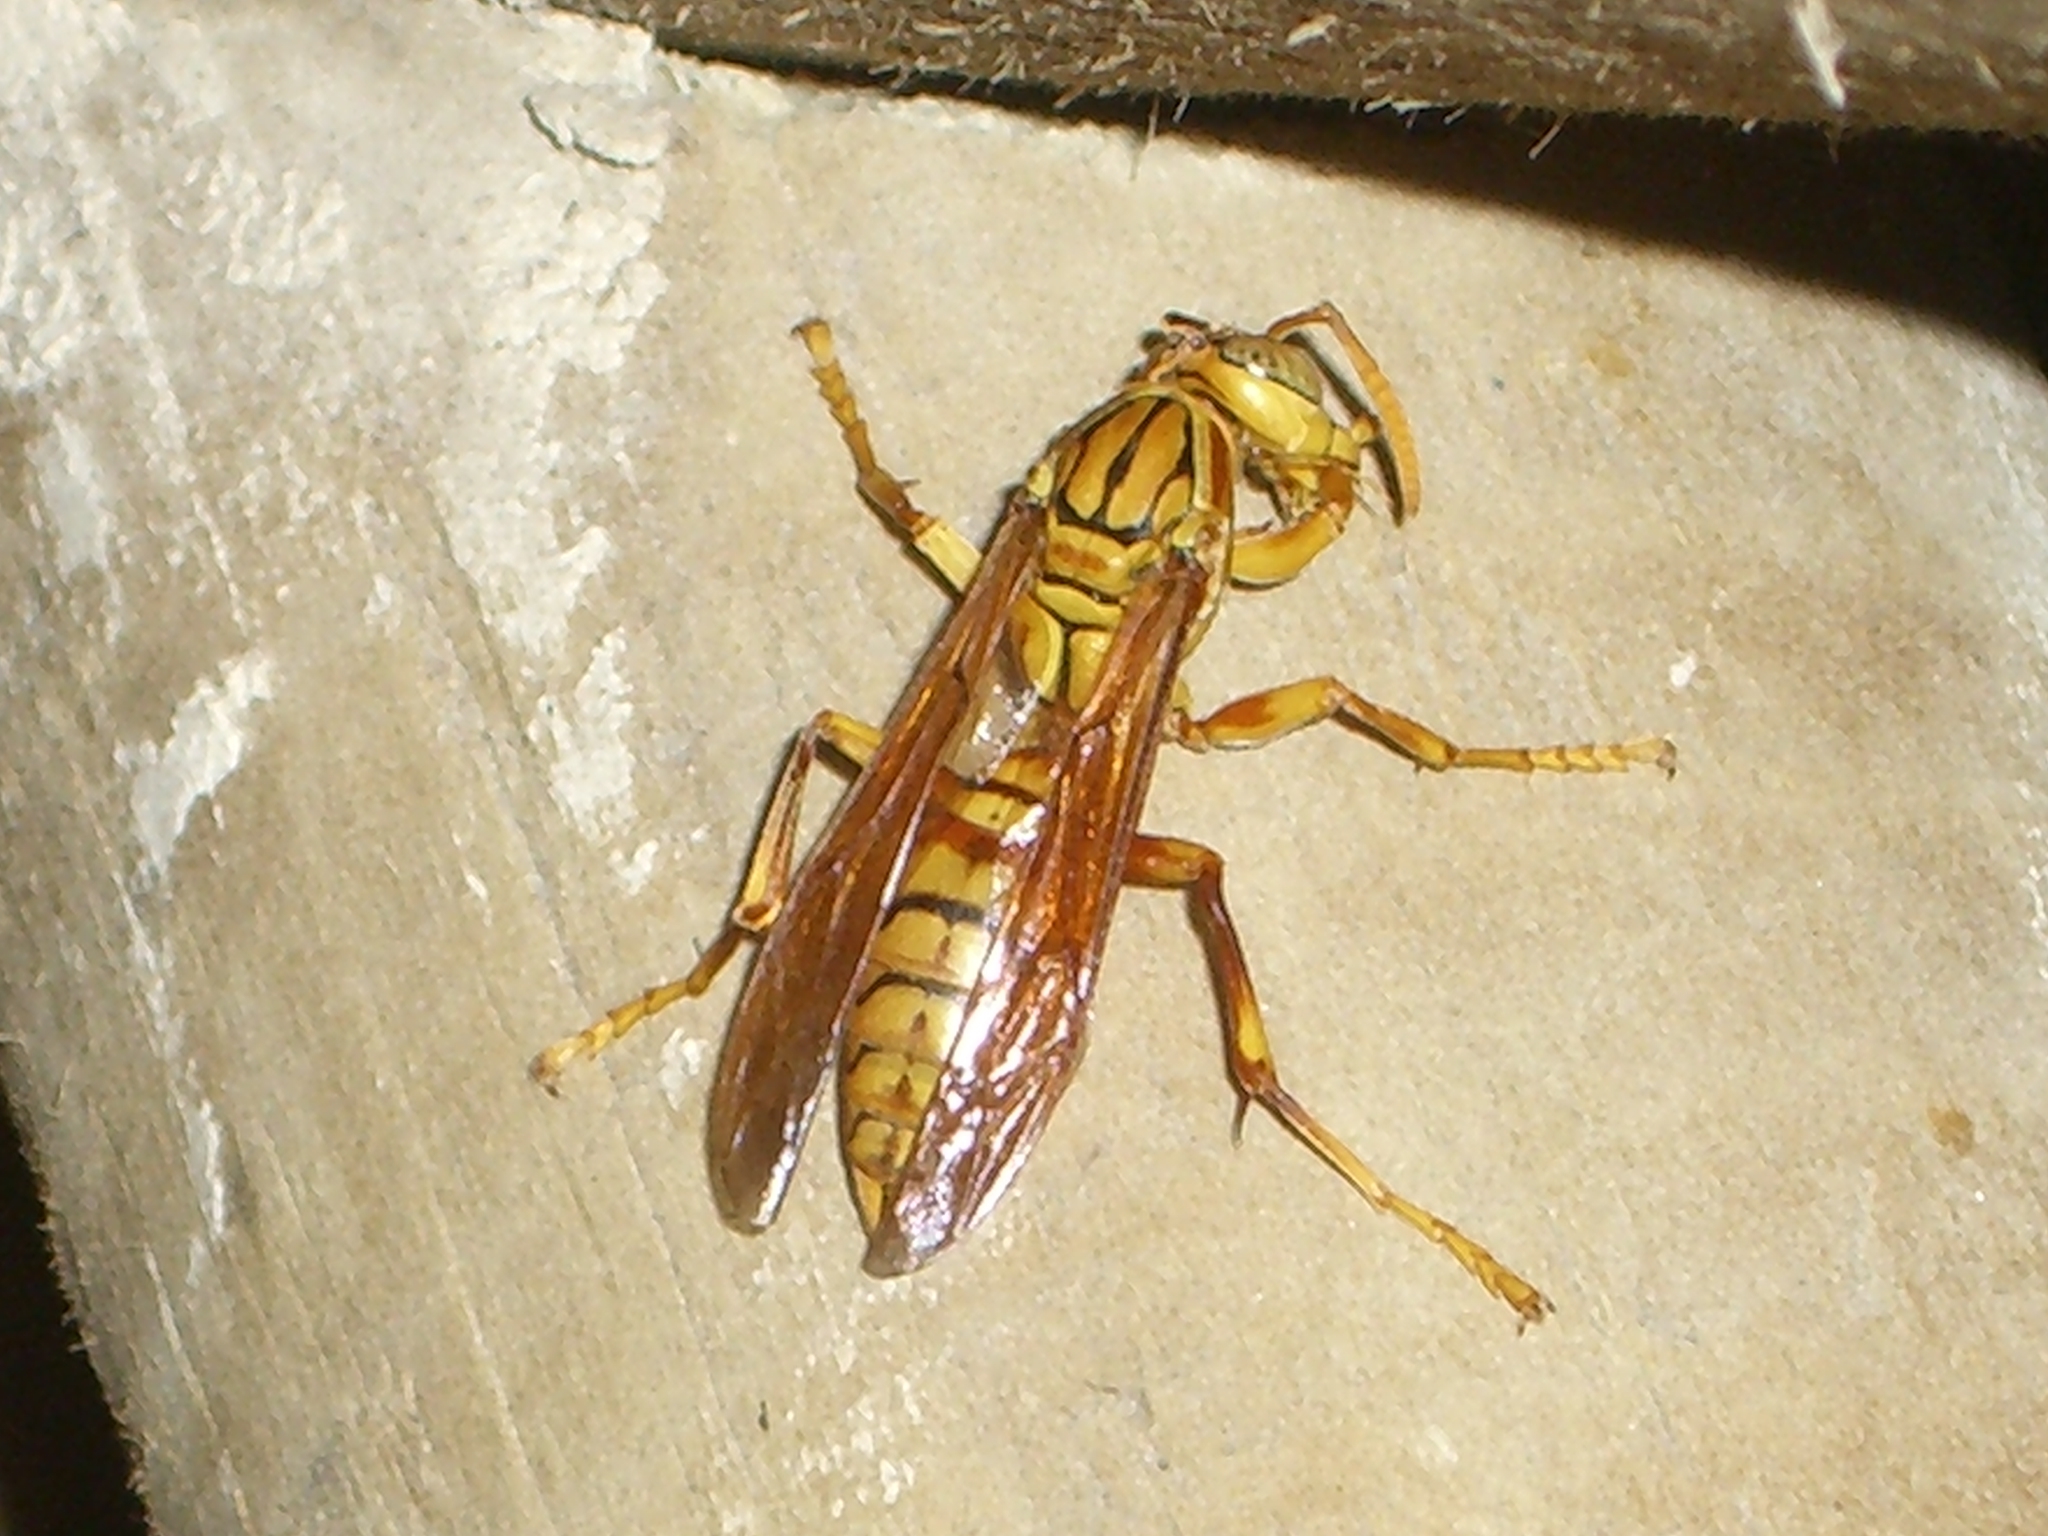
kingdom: Animalia
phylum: Arthropoda
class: Insecta
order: Hymenoptera
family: Eumenidae
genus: Polistes
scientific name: Polistes olivaceus
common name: Paper wasp
